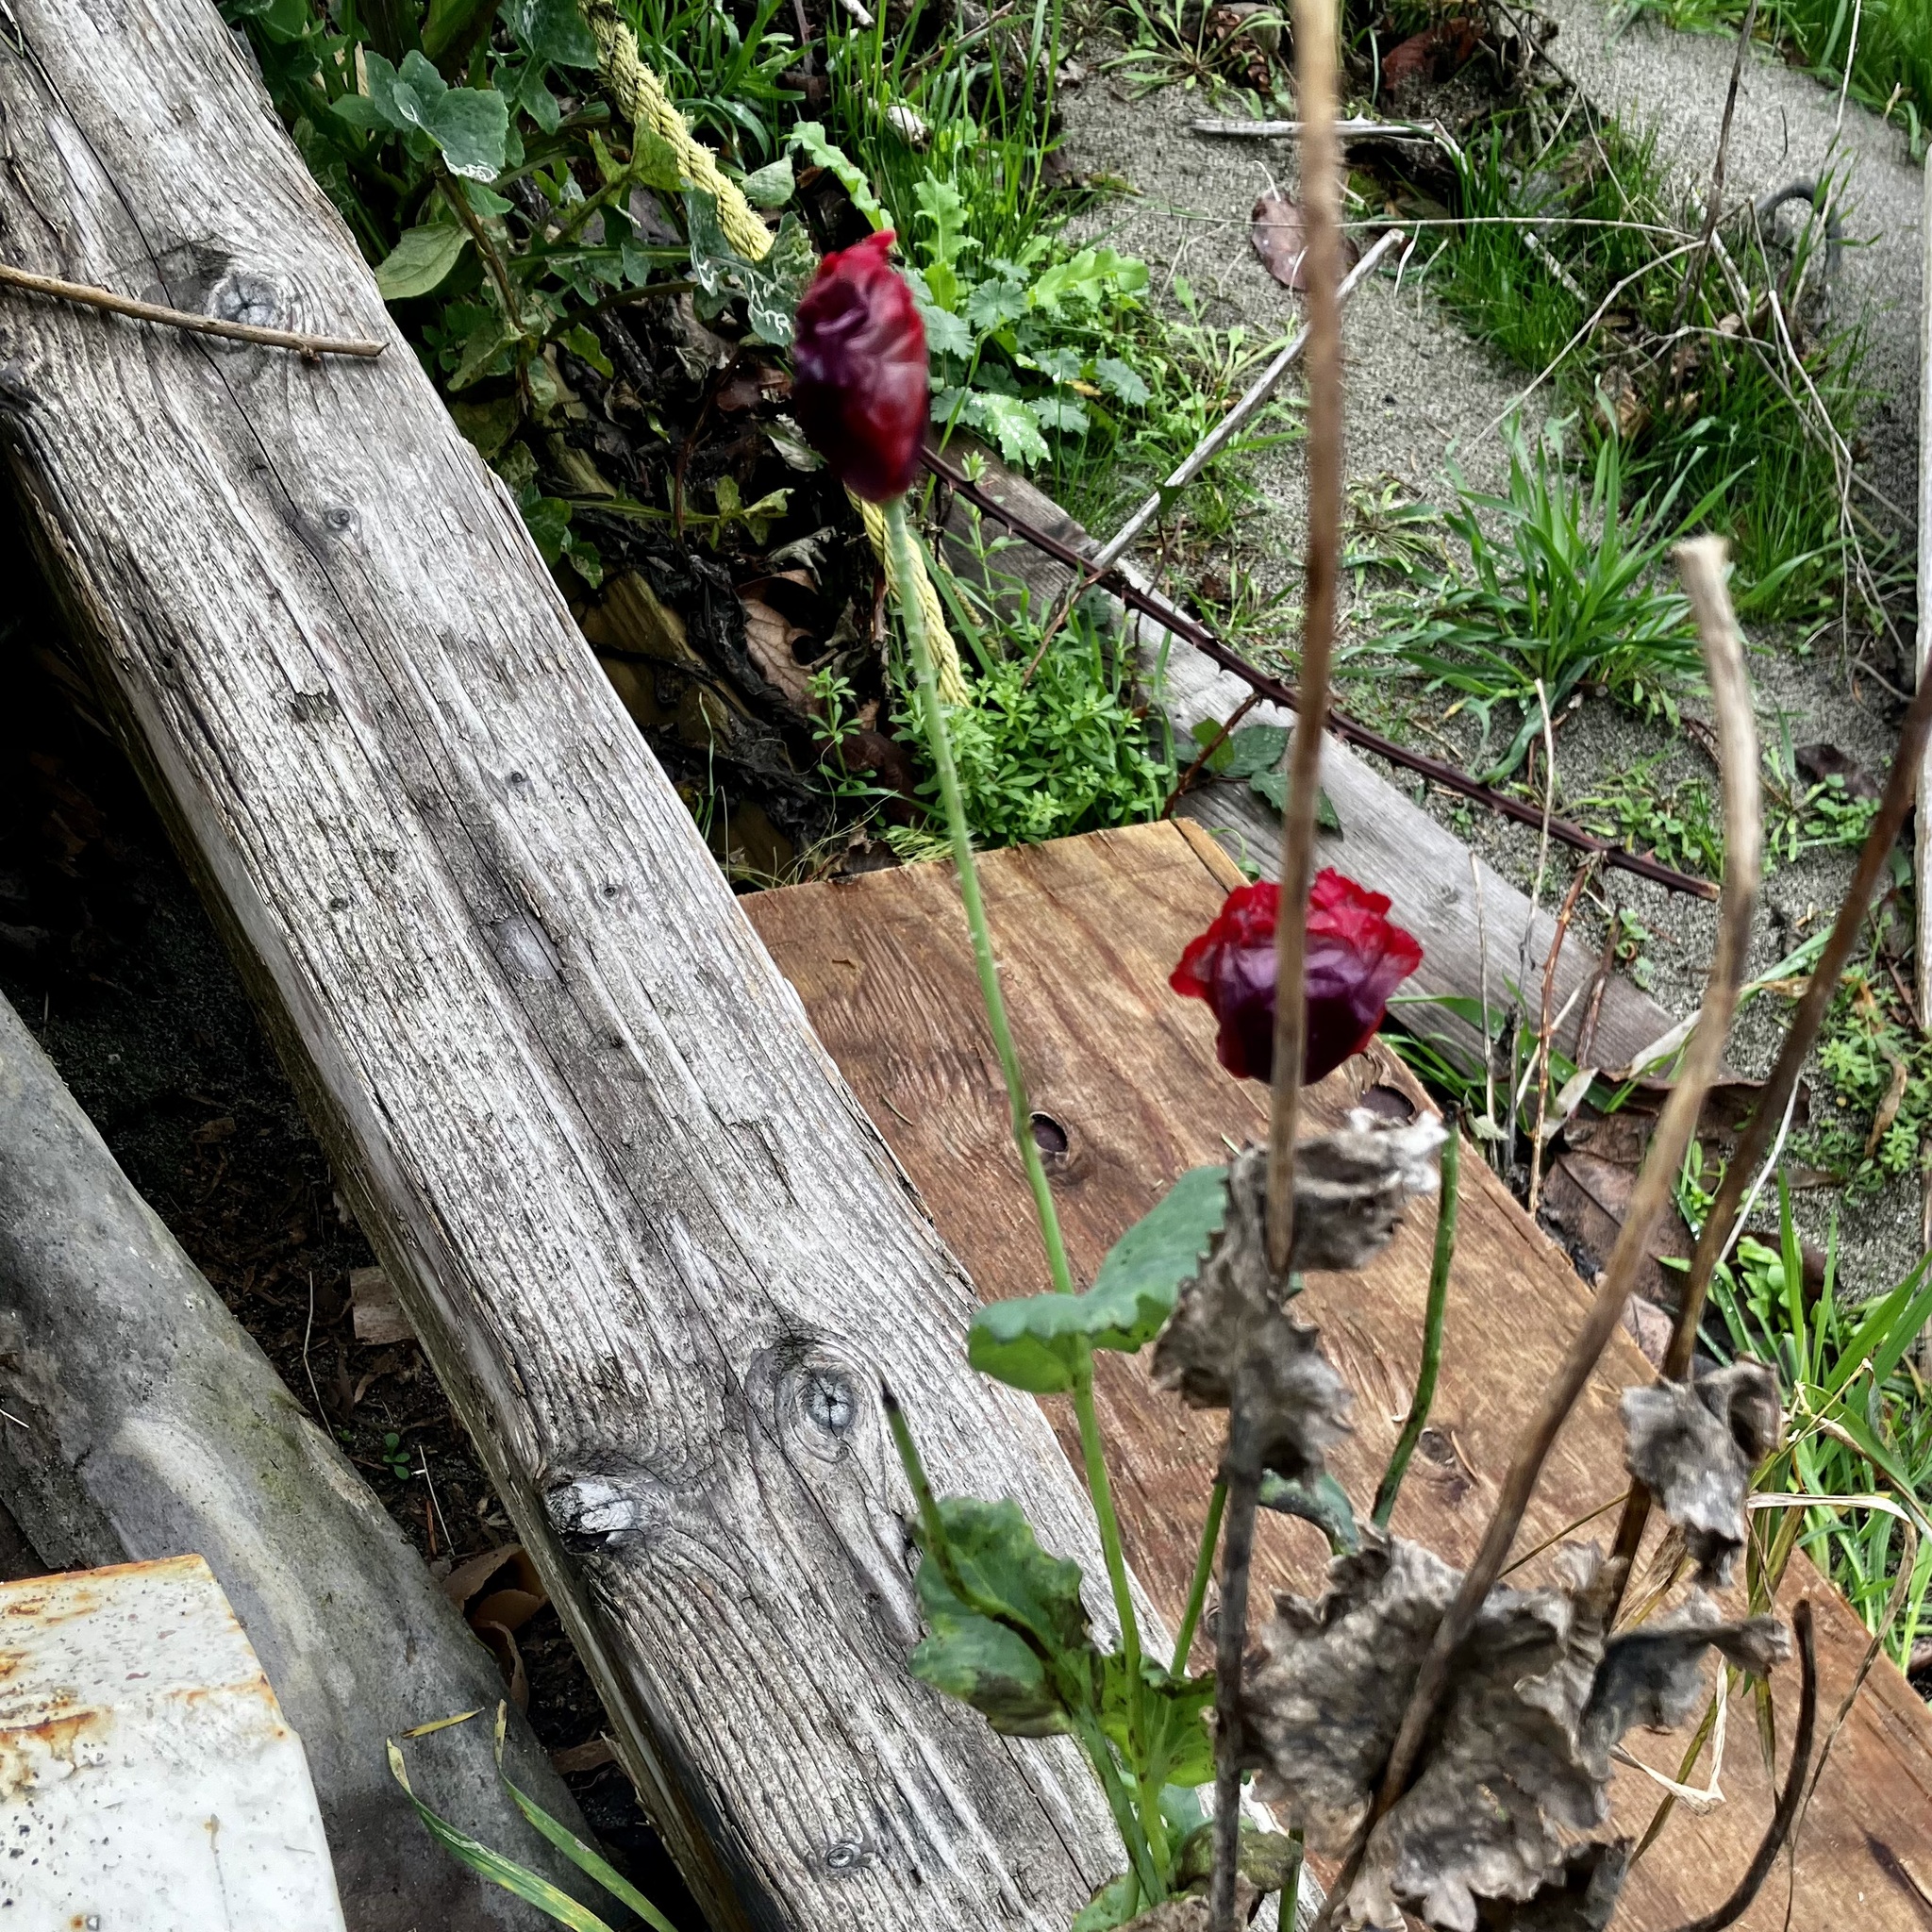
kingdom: Plantae
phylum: Tracheophyta
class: Magnoliopsida
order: Ranunculales
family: Papaveraceae
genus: Papaver
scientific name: Papaver somniferum
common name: Opium poppy
